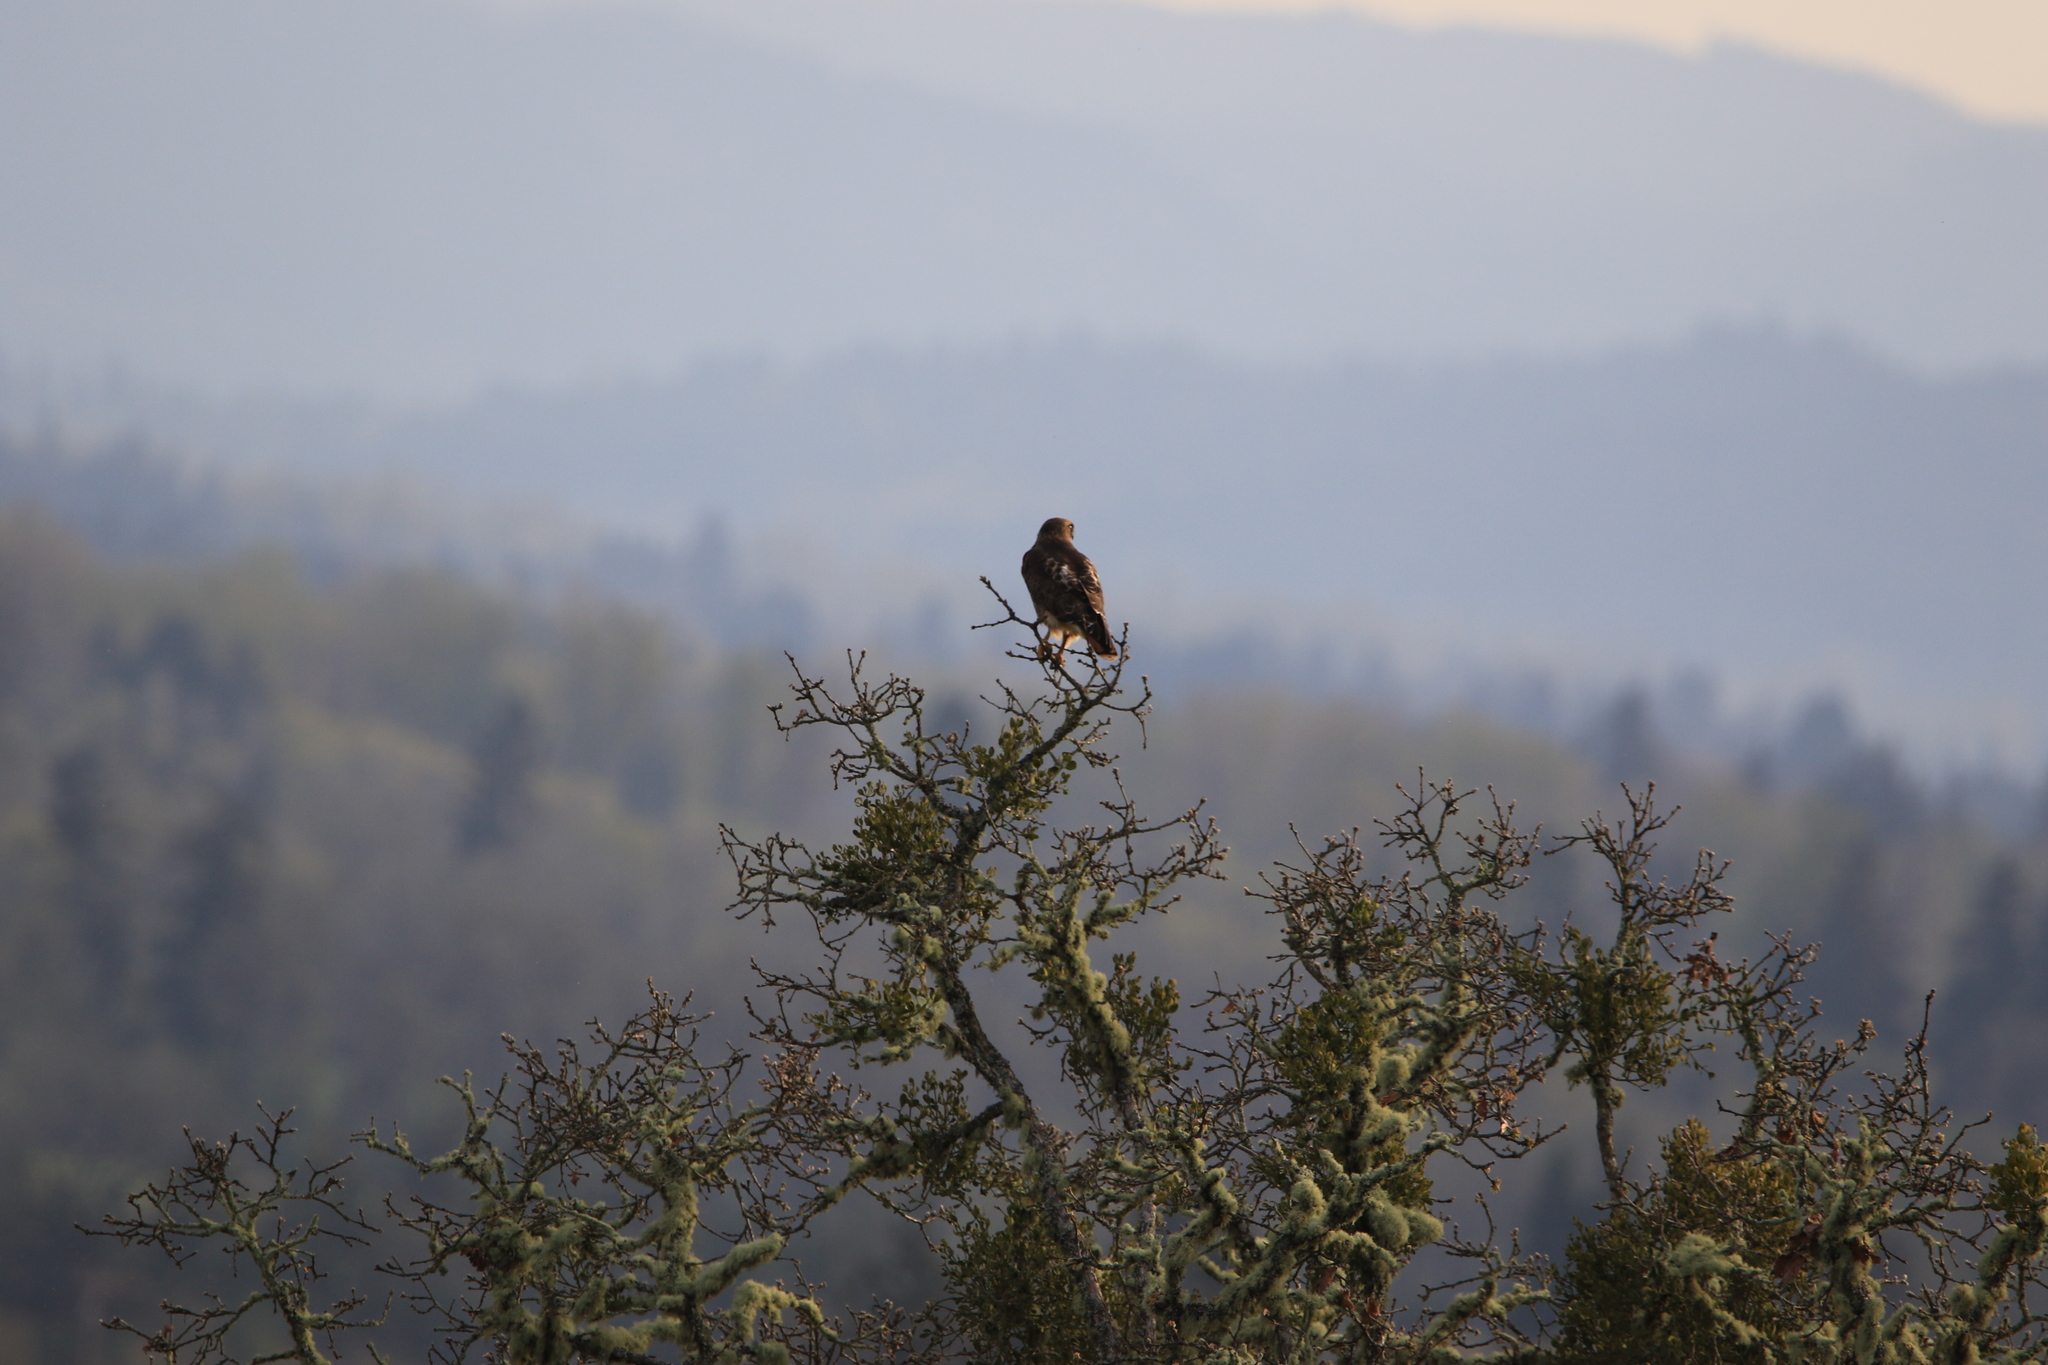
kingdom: Plantae
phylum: Tracheophyta
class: Magnoliopsida
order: Santalales
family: Viscaceae
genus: Phoradendron
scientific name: Phoradendron leucarpum
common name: Pacific mistletoe
